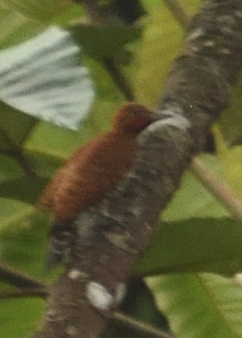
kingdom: Animalia
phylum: Chordata
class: Aves
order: Piciformes
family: Picidae
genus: Celeus
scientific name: Celeus loricatus
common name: Cinnamon woodpecker
